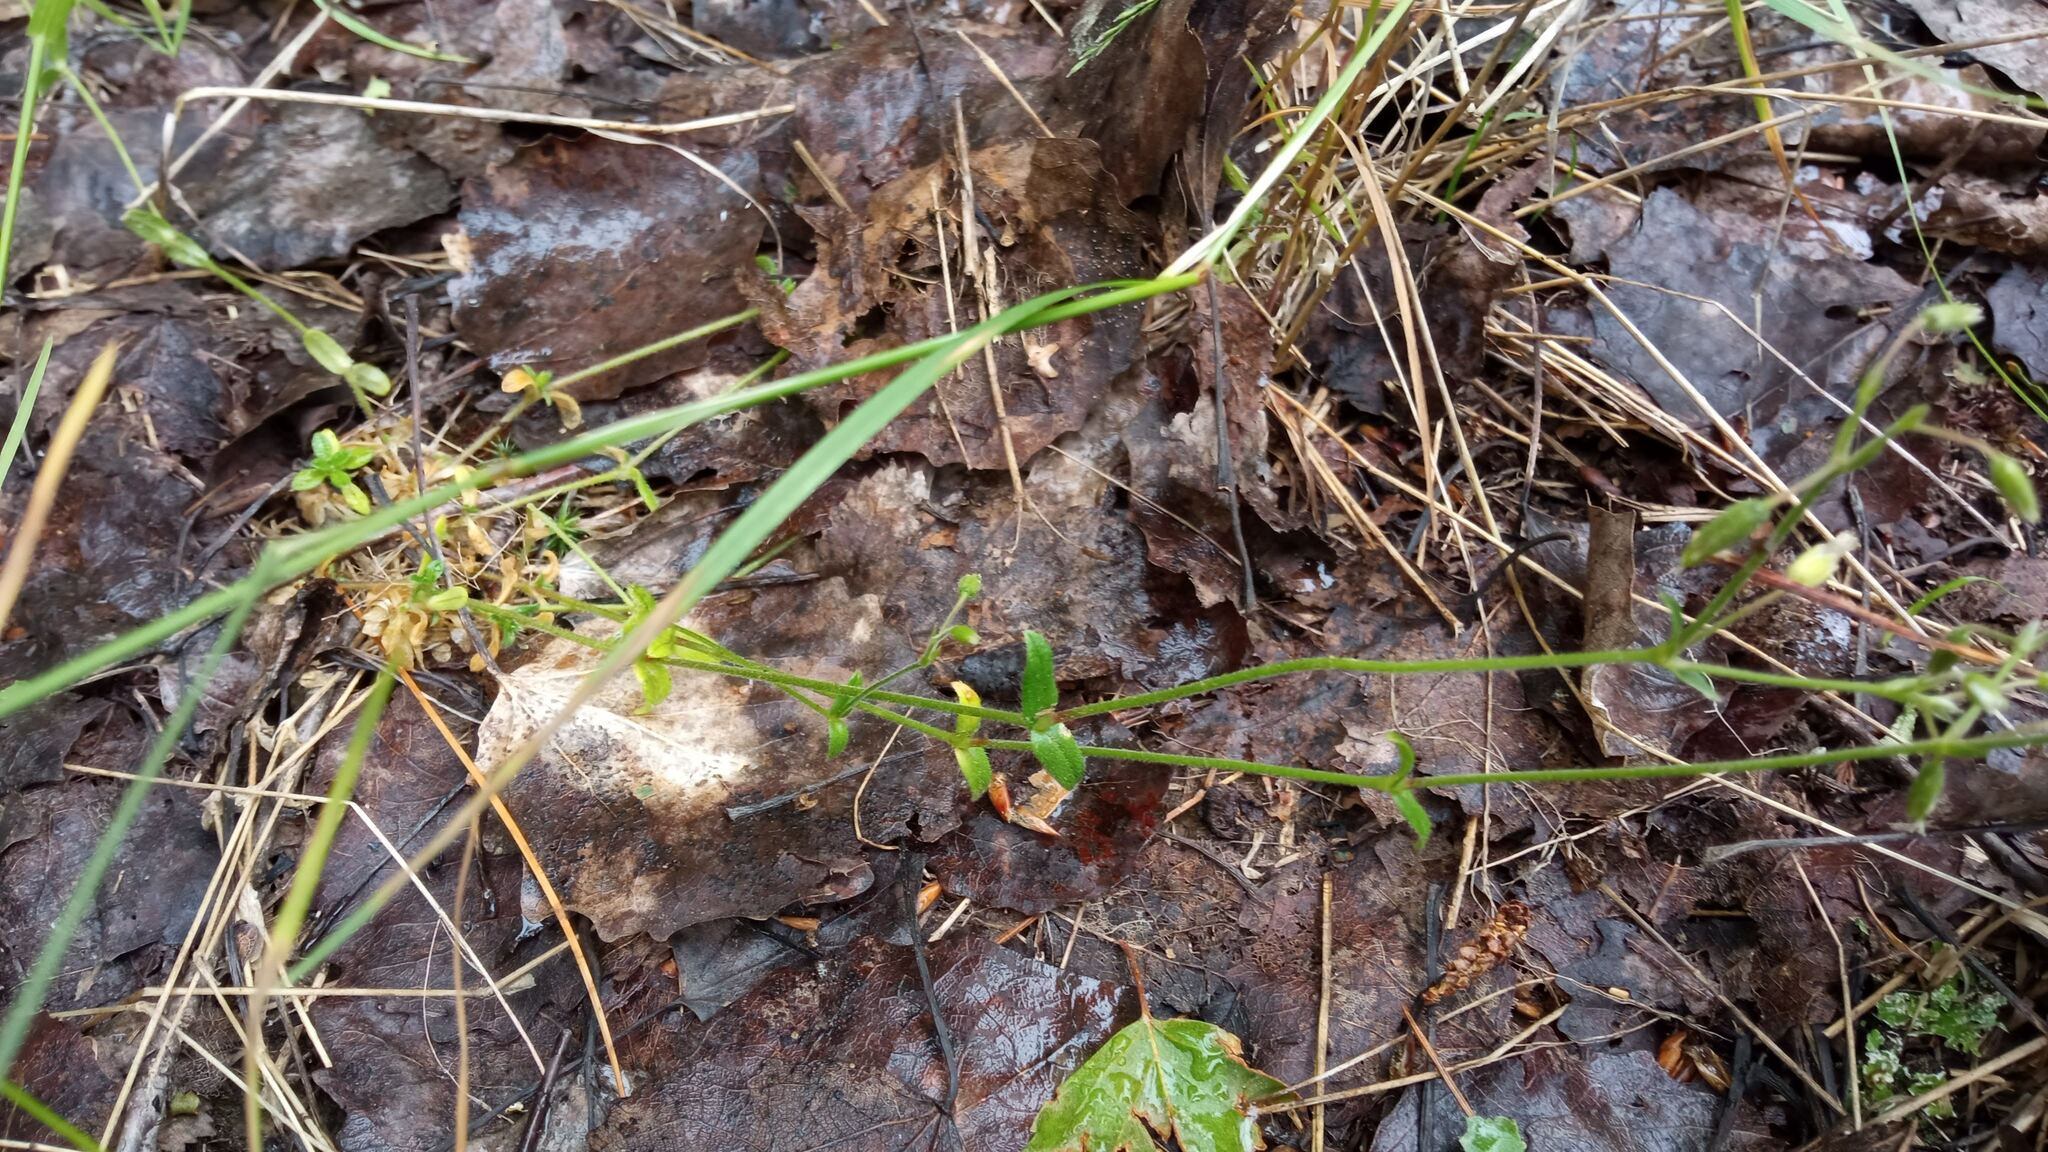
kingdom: Plantae
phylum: Tracheophyta
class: Magnoliopsida
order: Caryophyllales
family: Caryophyllaceae
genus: Cerastium
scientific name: Cerastium holosteoides
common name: Big chickweed
